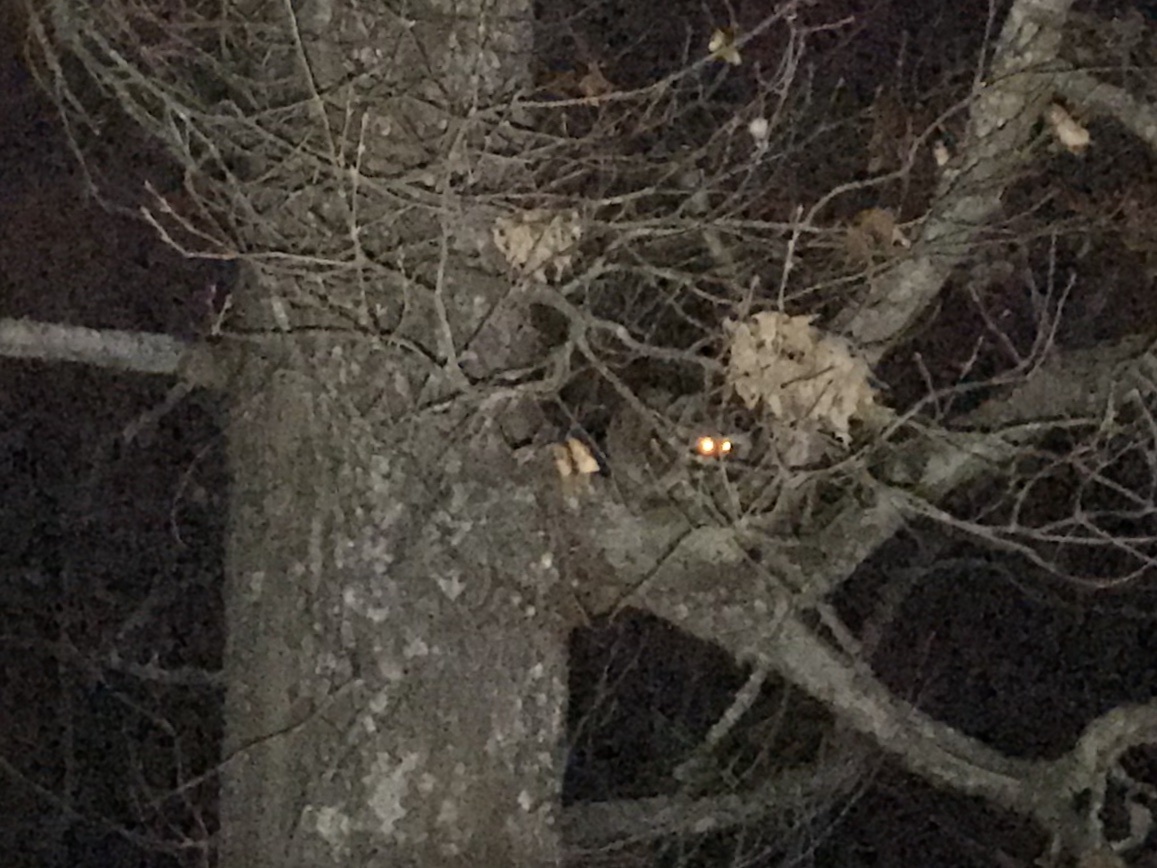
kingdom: Animalia
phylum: Chordata
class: Mammalia
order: Carnivora
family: Procyonidae
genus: Procyon
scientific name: Procyon lotor
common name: Raccoon
